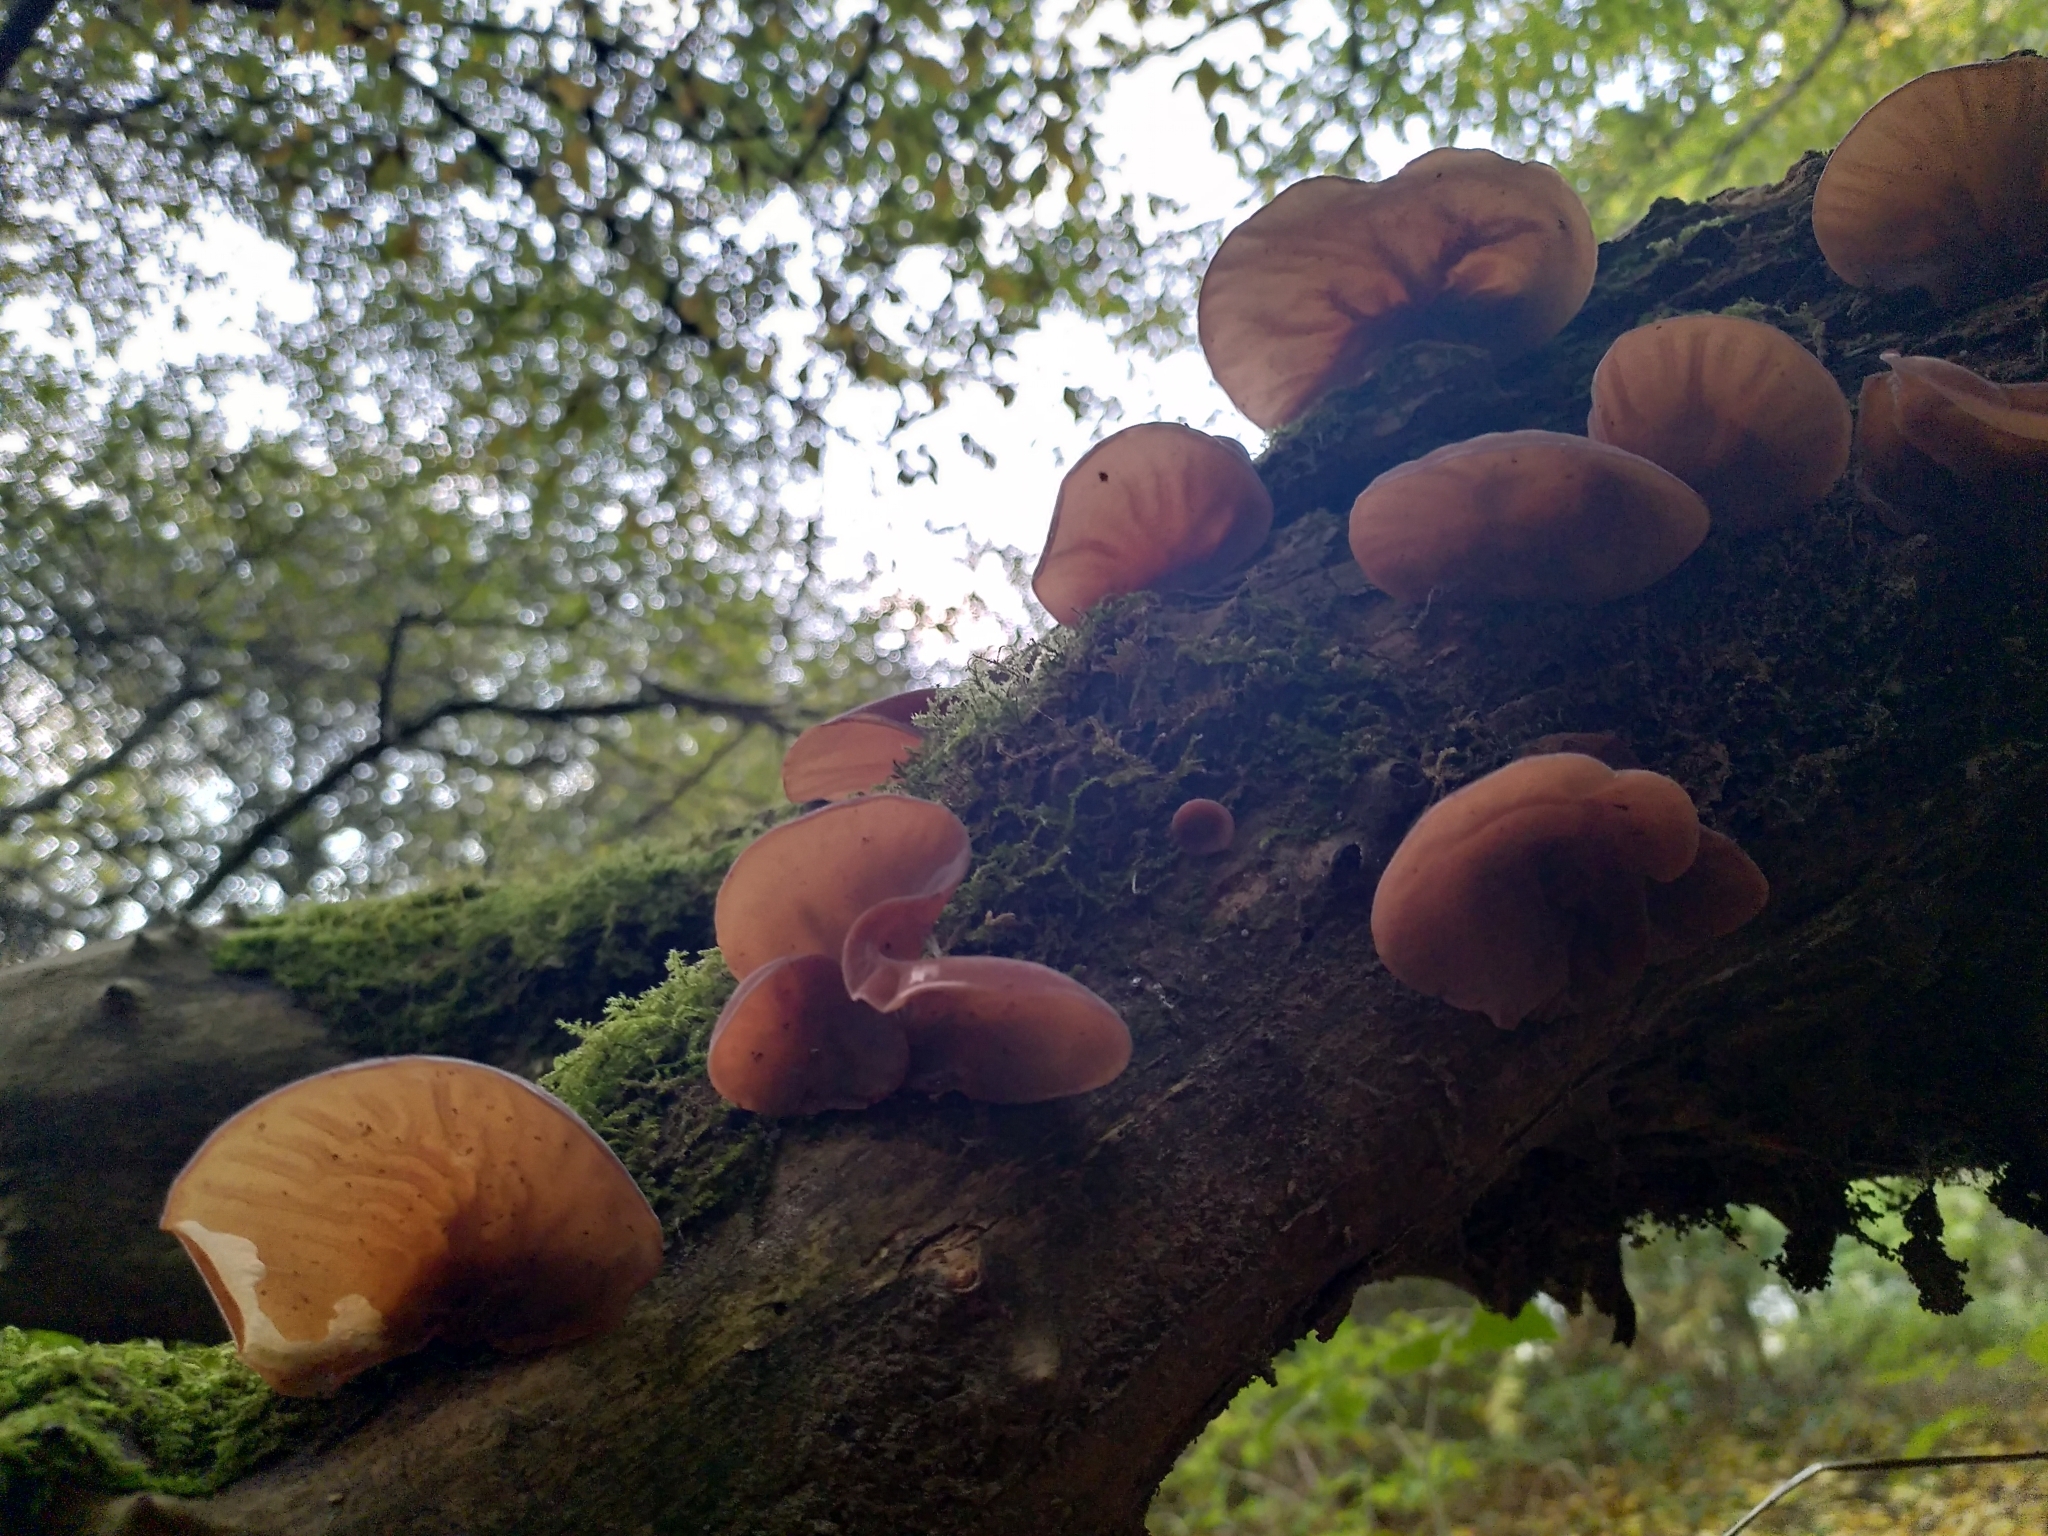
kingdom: Fungi
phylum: Basidiomycota
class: Agaricomycetes
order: Auriculariales
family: Auriculariaceae
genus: Auricularia
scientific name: Auricularia auricula-judae
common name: Jelly ear
